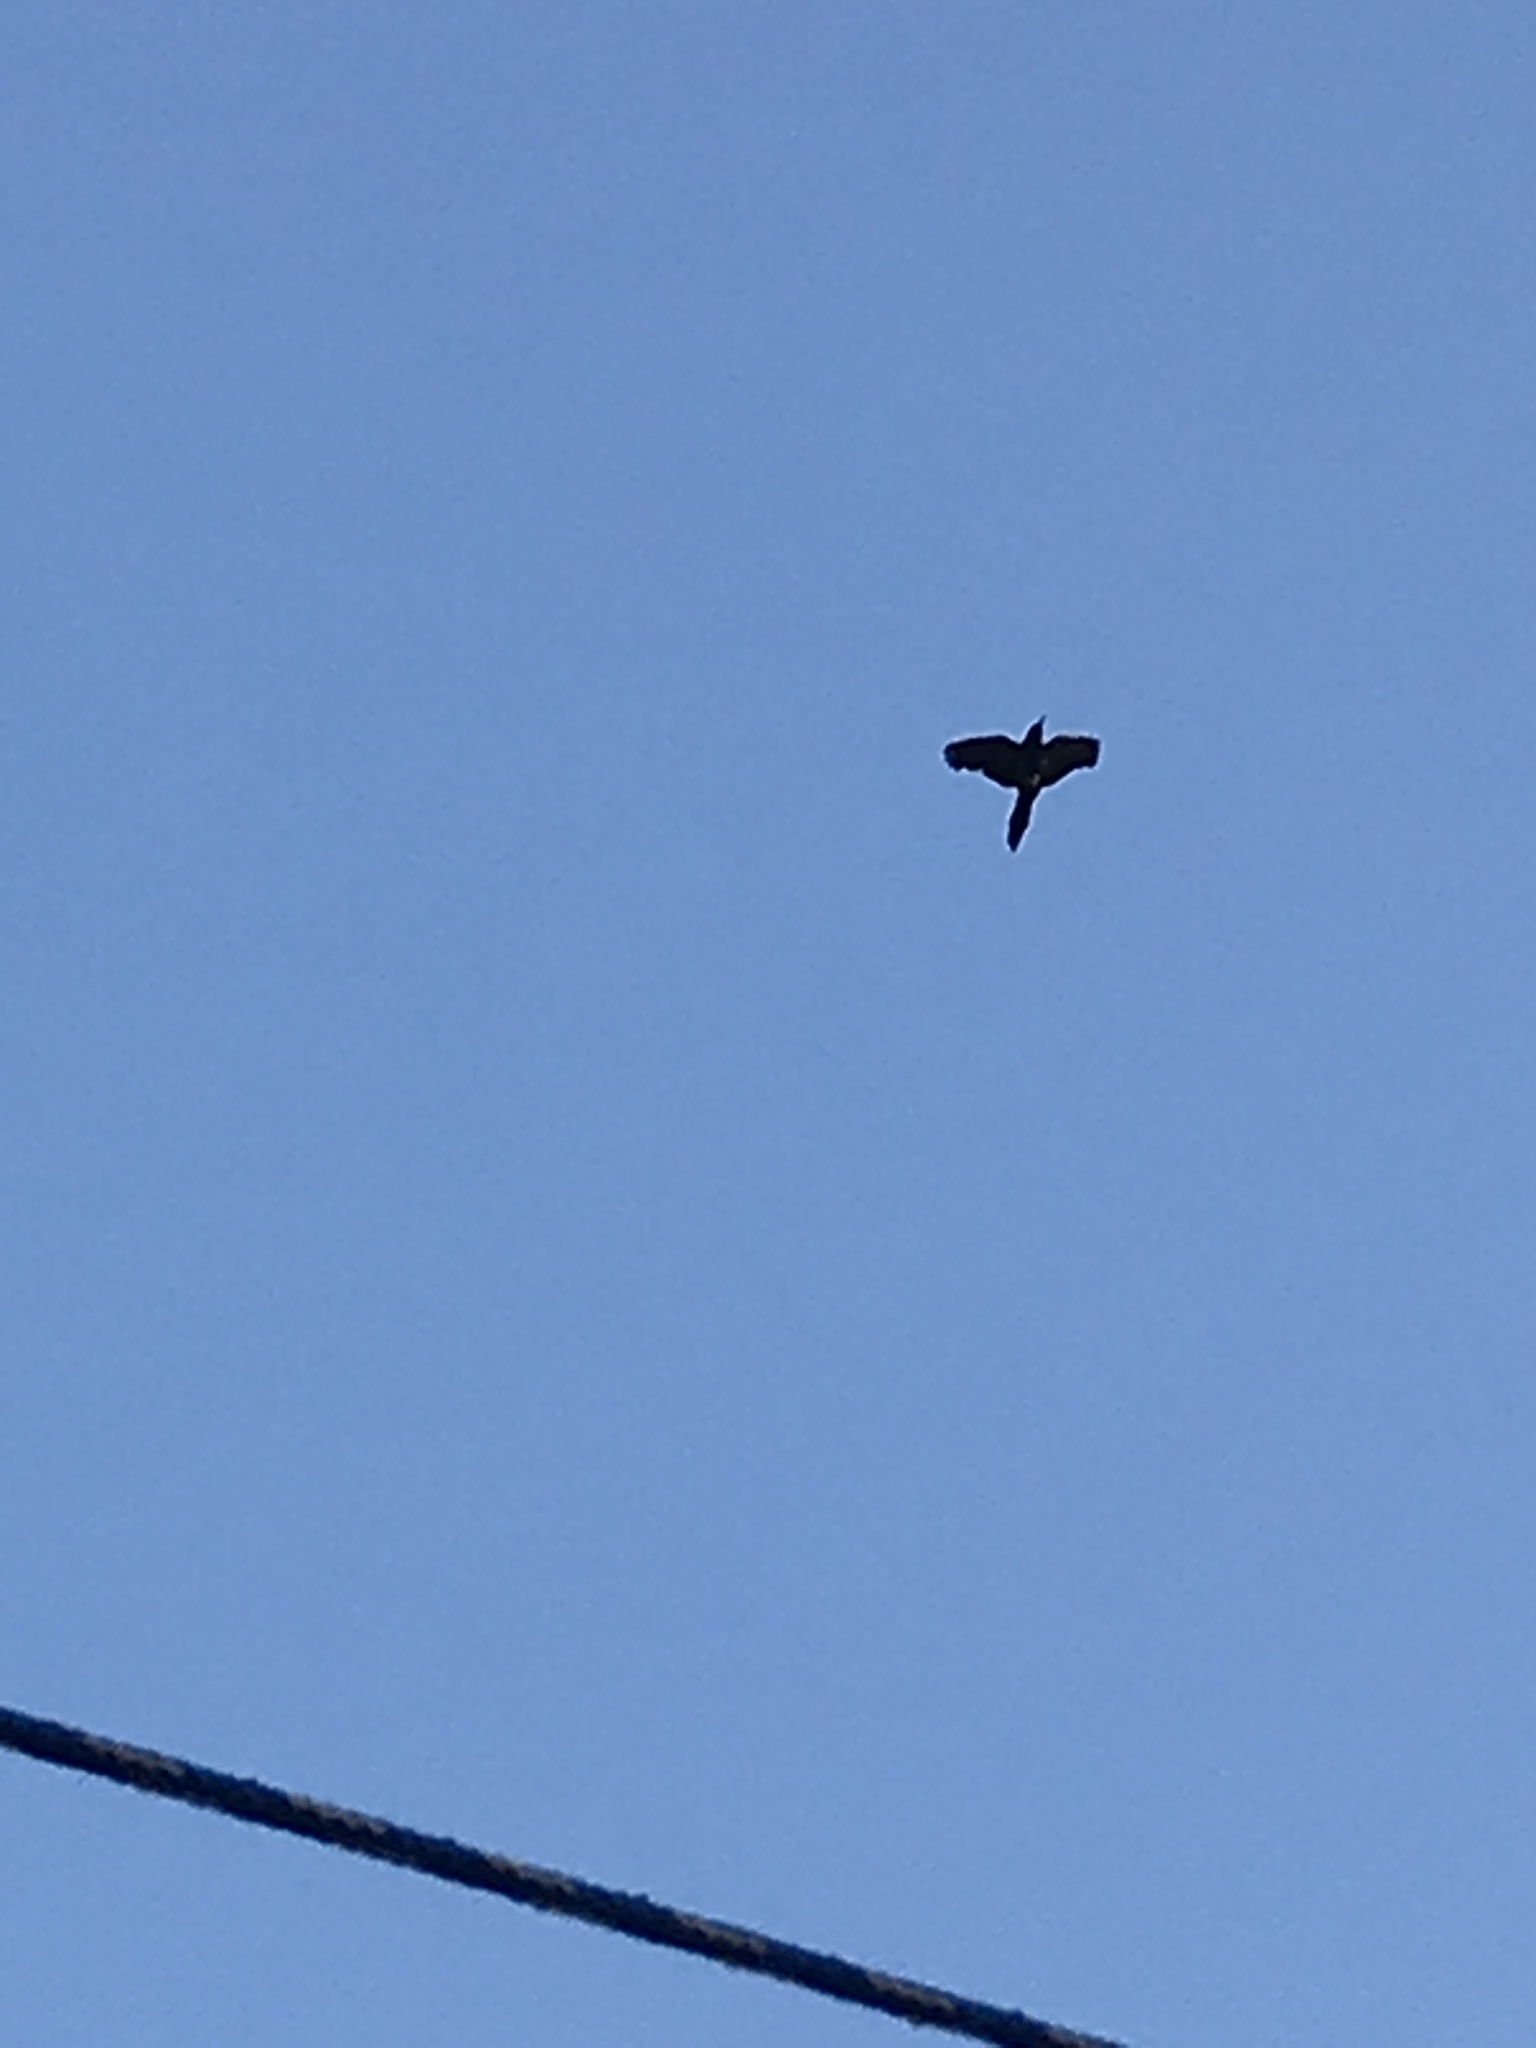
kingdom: Animalia
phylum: Chordata
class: Aves
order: Passeriformes
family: Icteridae
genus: Quiscalus
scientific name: Quiscalus major
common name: Boat-tailed grackle
